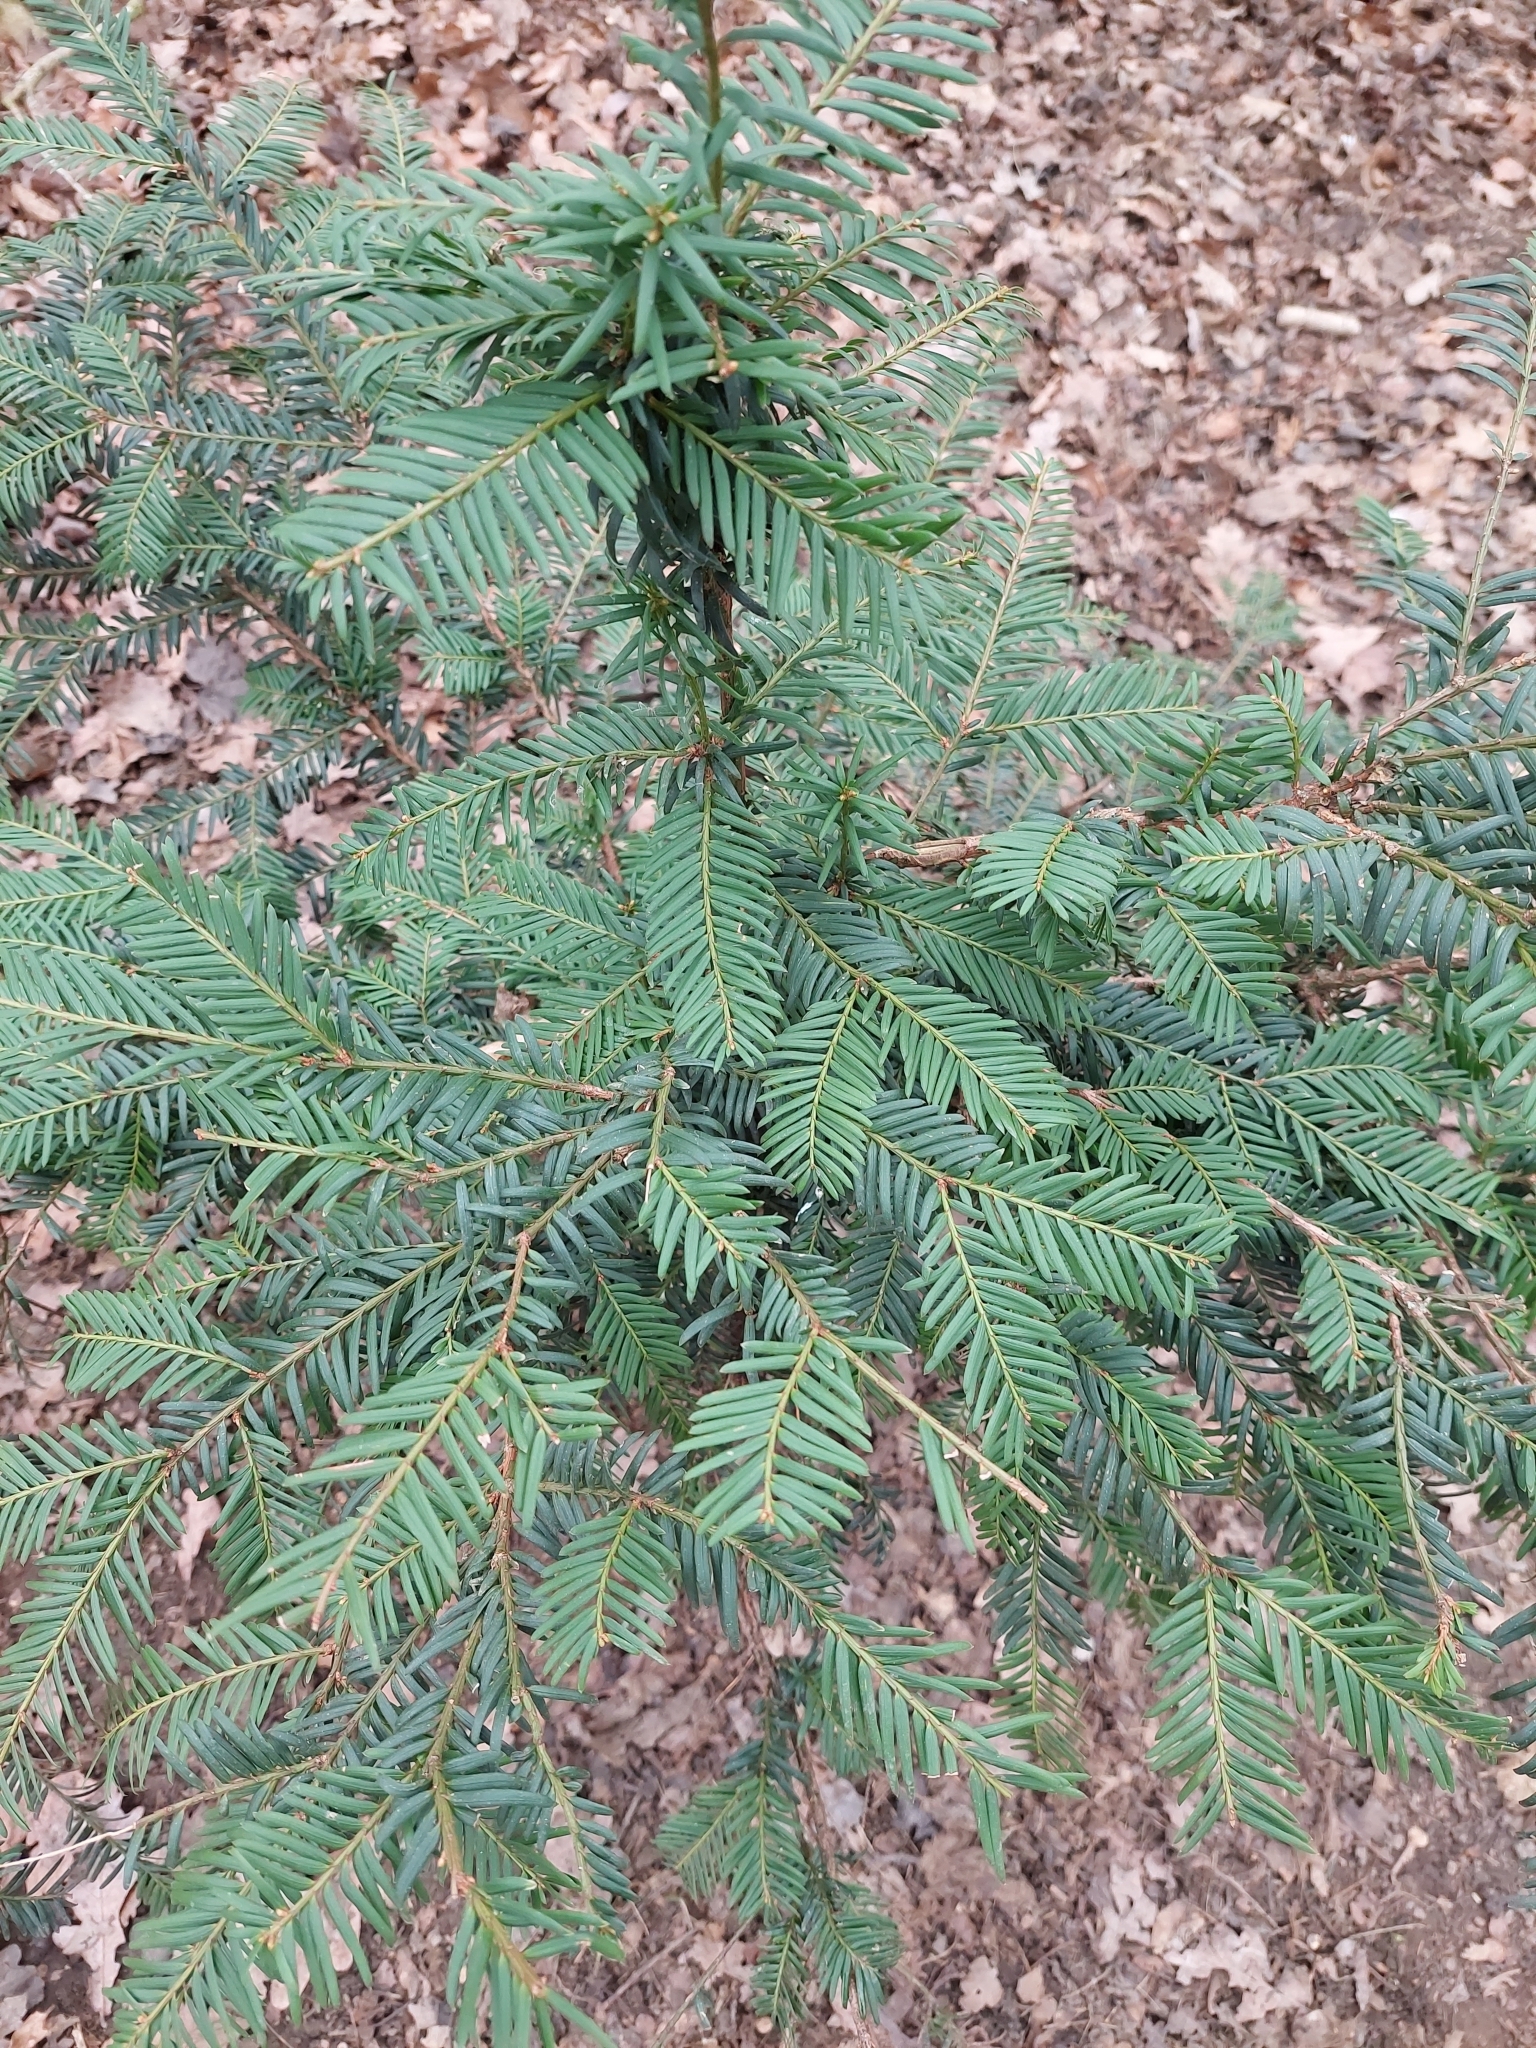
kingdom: Plantae
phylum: Tracheophyta
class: Pinopsida
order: Pinales
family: Taxaceae
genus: Taxus
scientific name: Taxus baccata
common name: Yew
